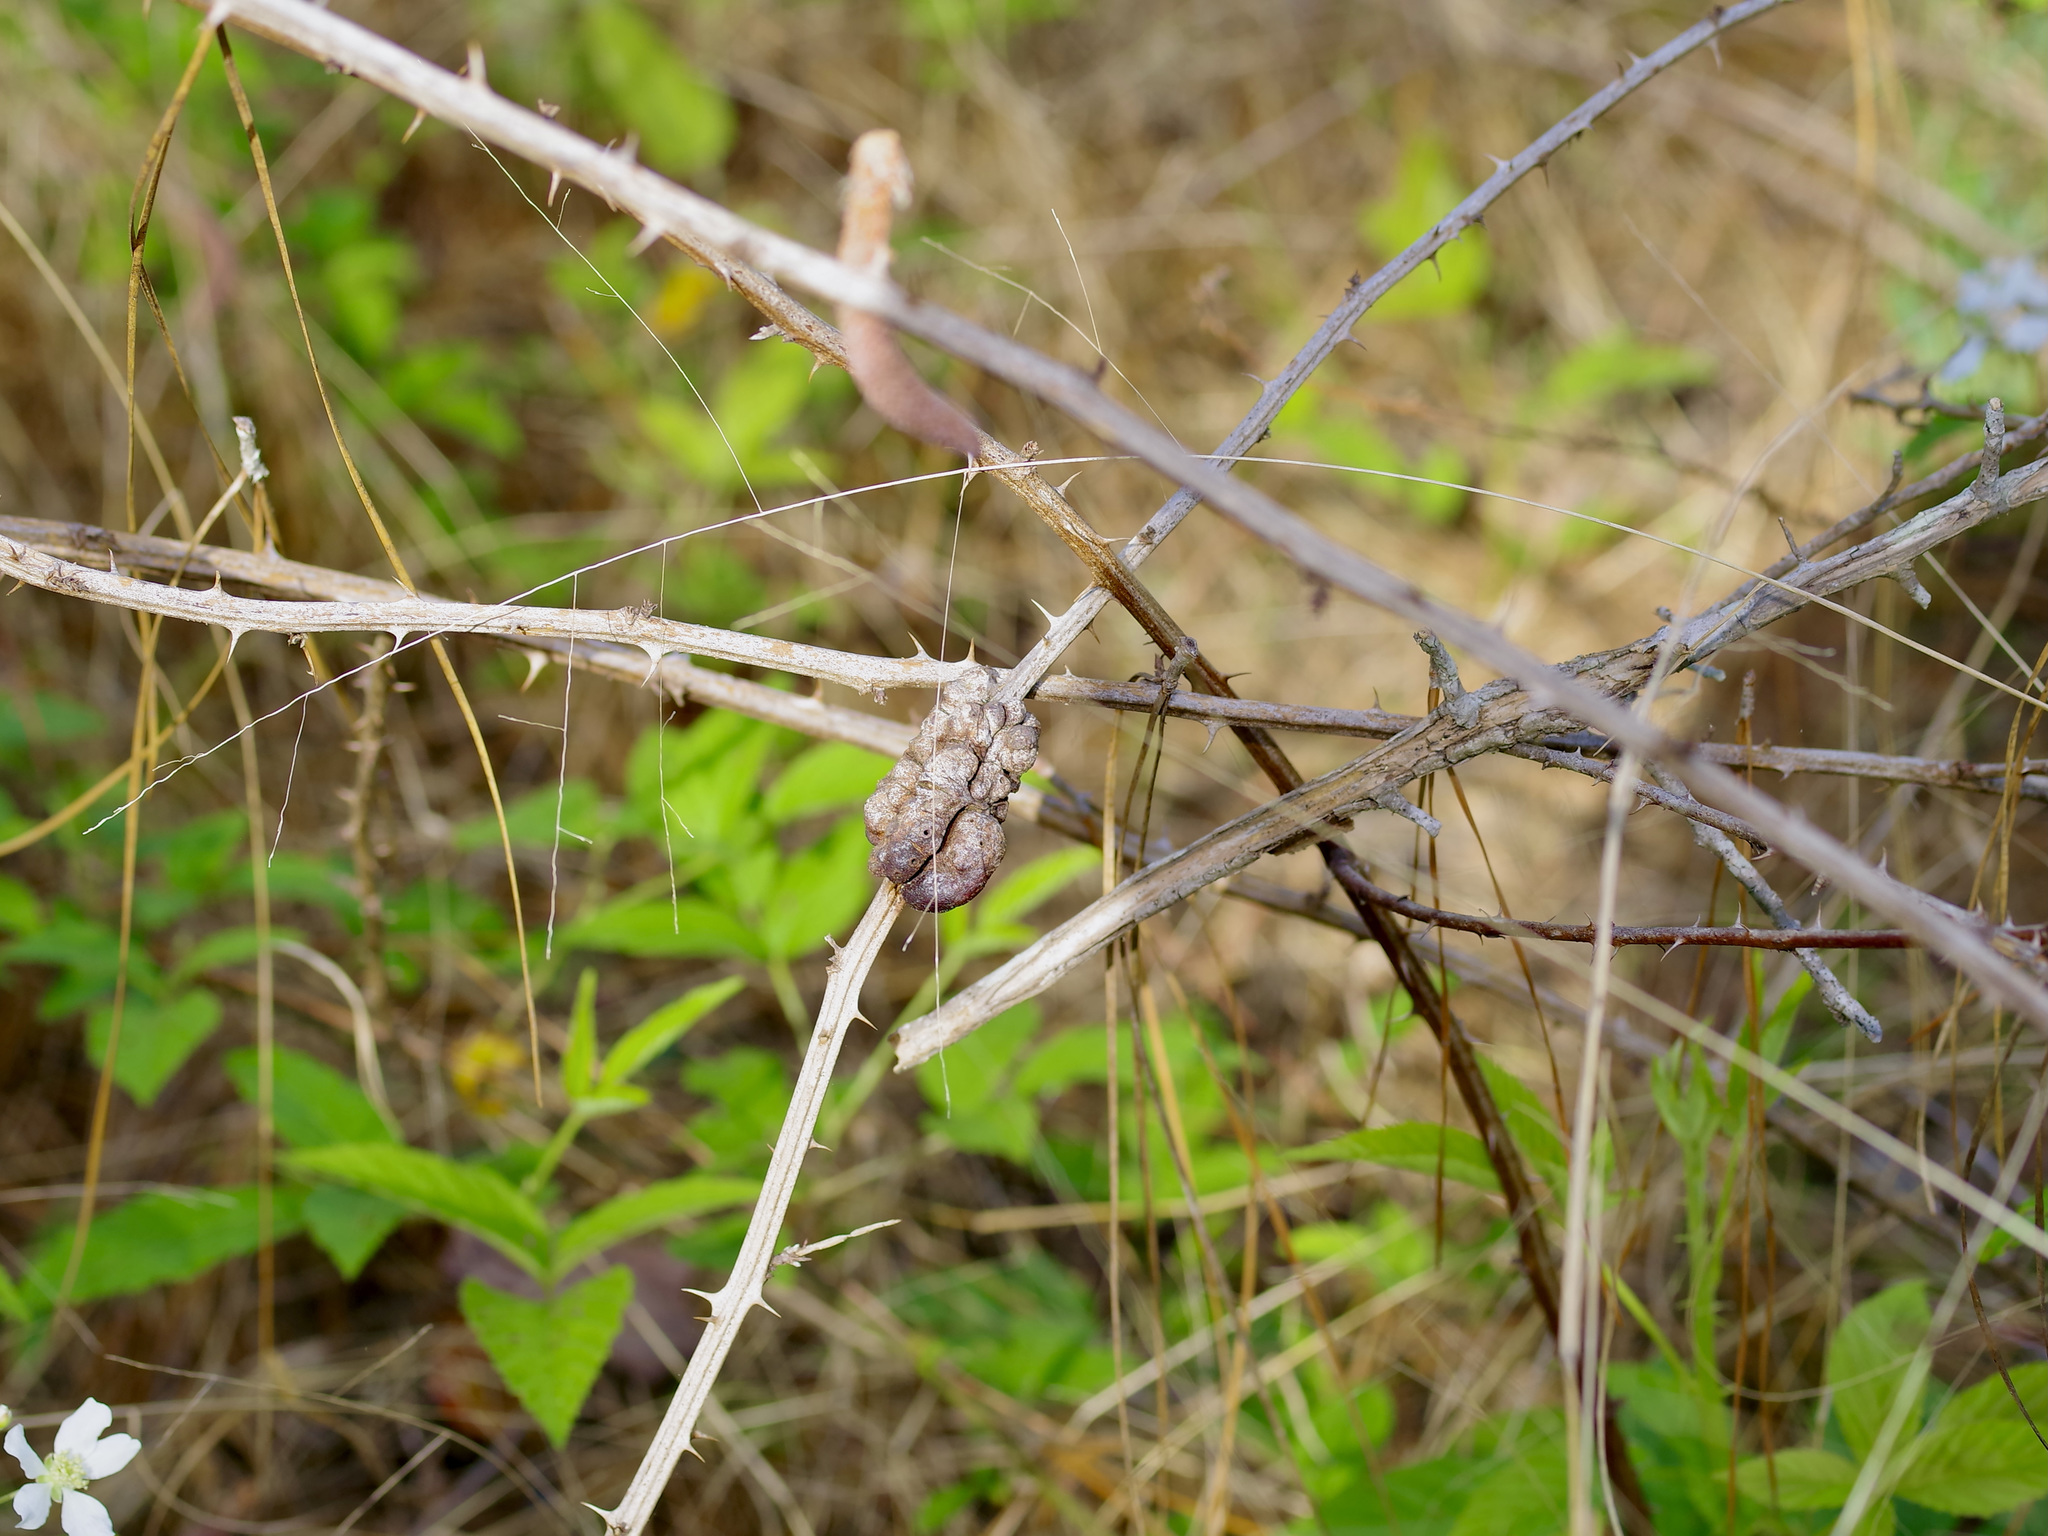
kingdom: Animalia
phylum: Arthropoda
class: Insecta
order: Hymenoptera
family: Cynipidae
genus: Diastrophus
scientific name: Diastrophus
